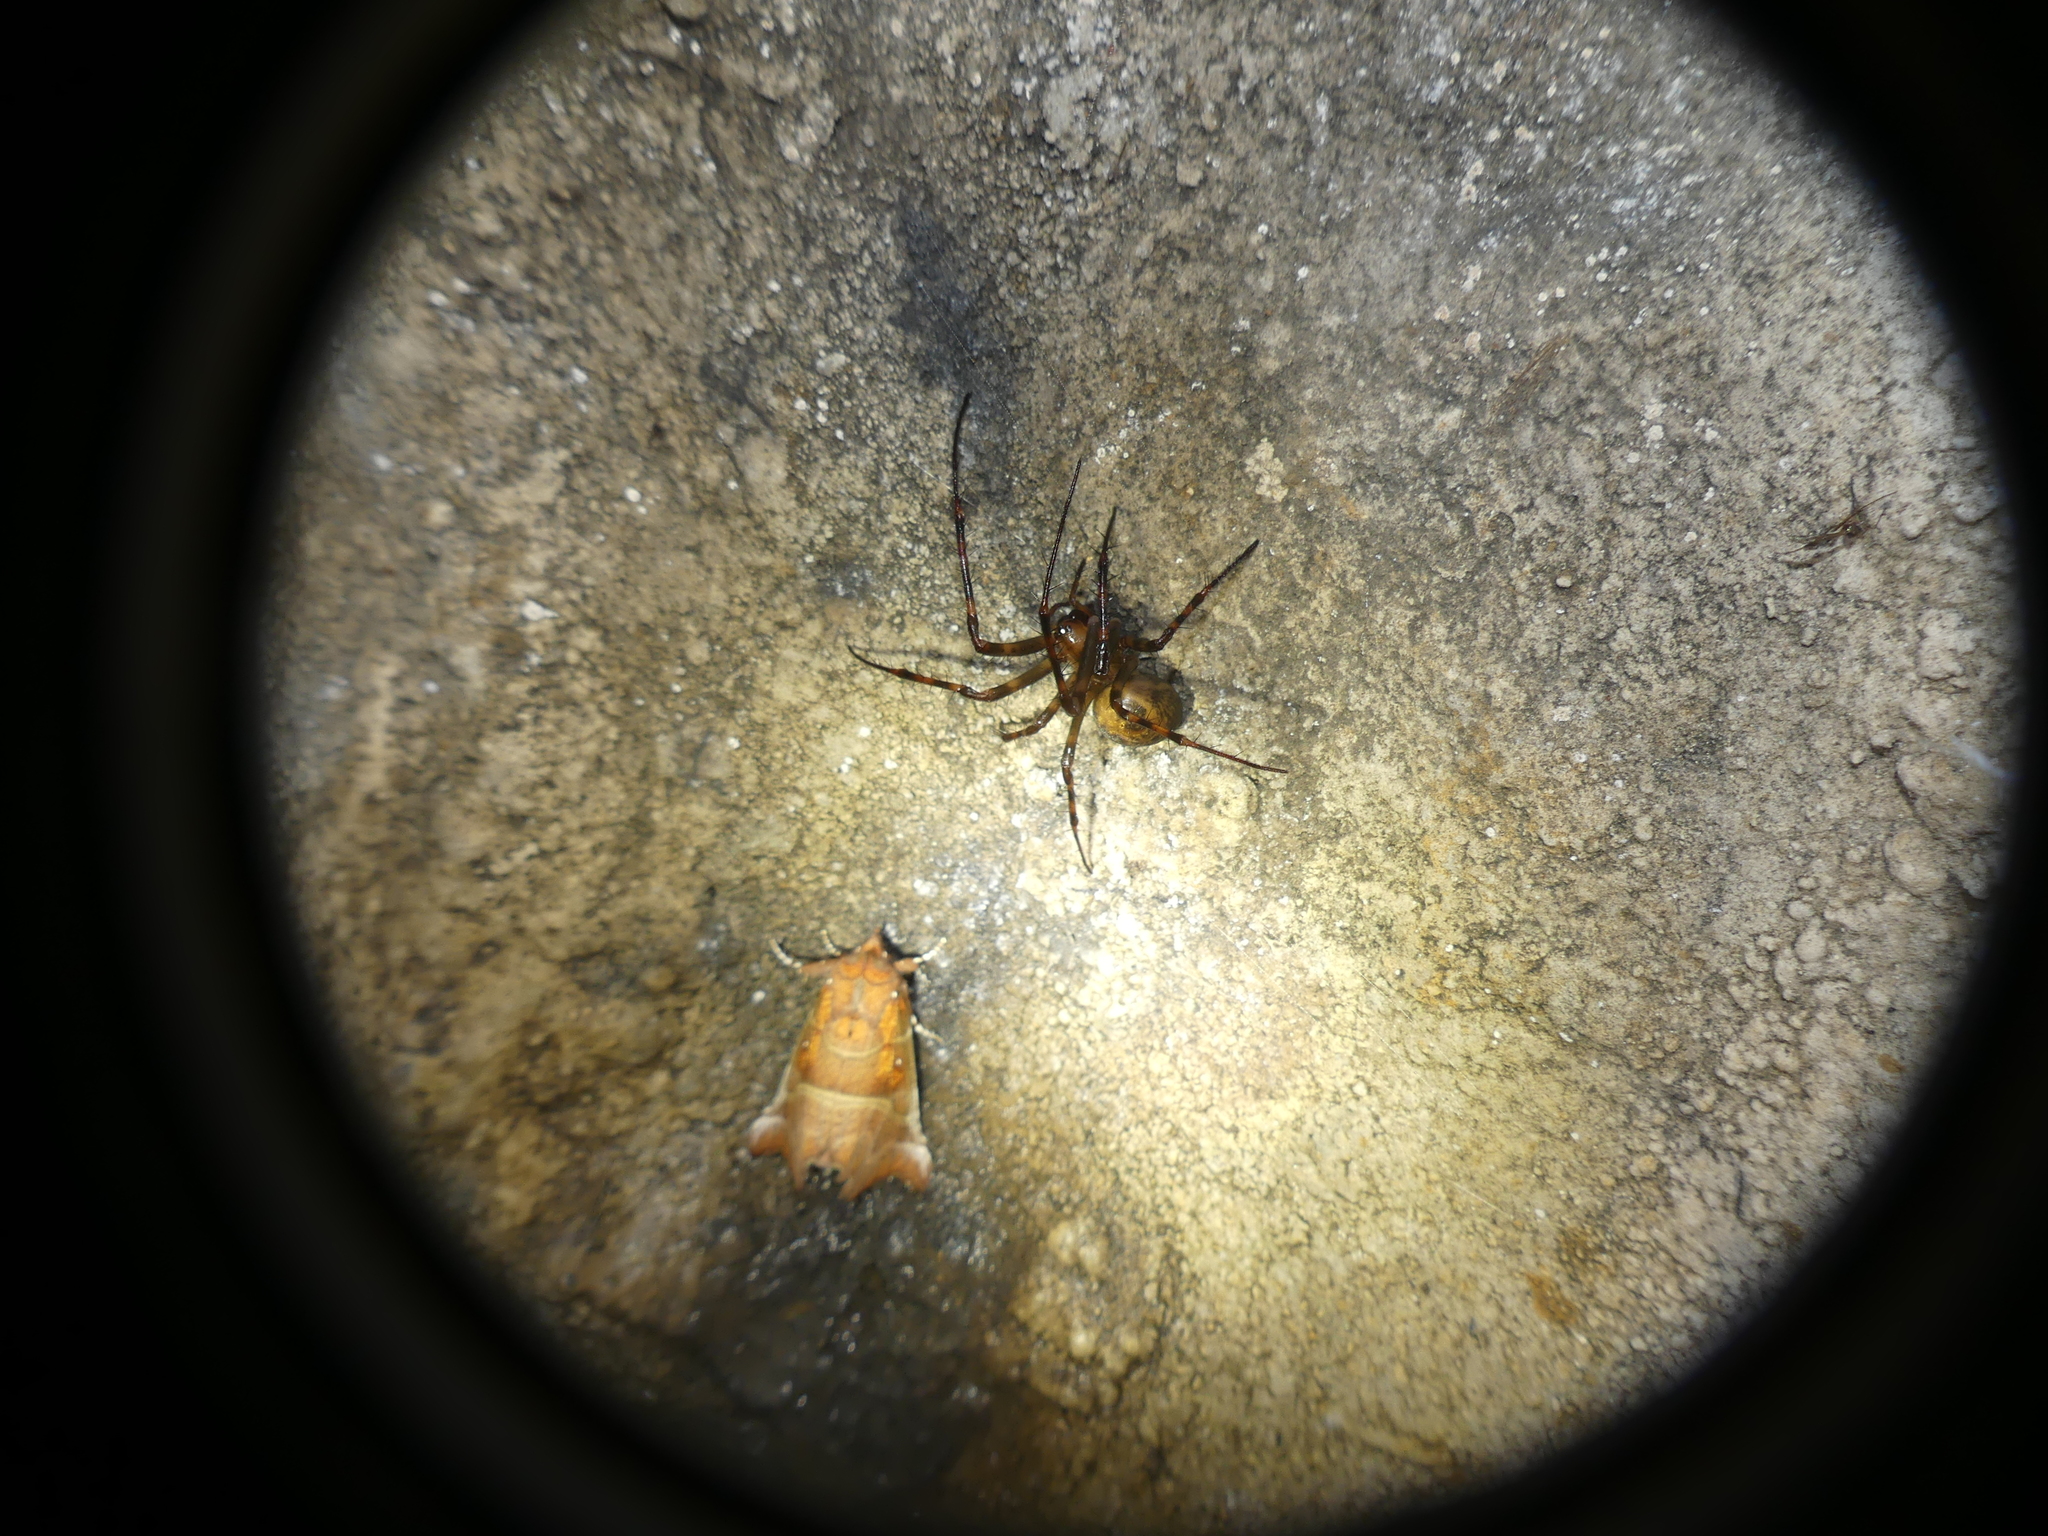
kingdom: Animalia
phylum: Arthropoda
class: Insecta
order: Lepidoptera
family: Erebidae
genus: Scoliopteryx
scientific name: Scoliopteryx libatrix
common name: Herald
